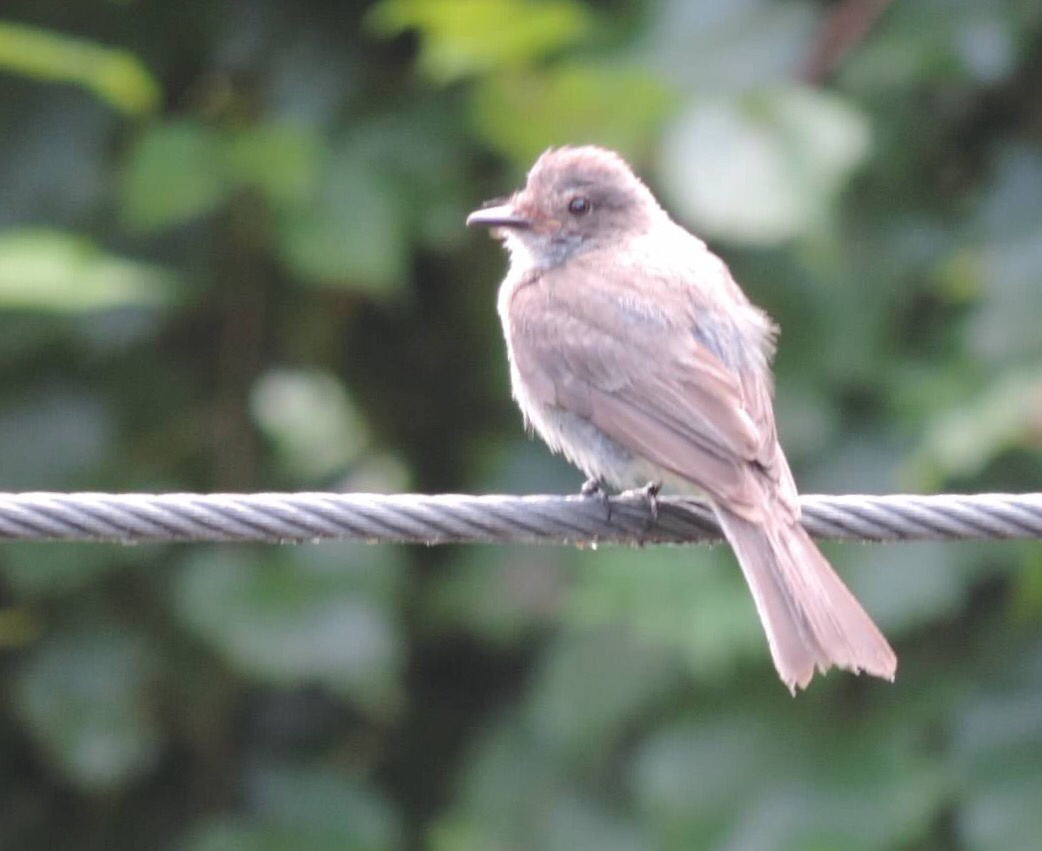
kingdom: Animalia
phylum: Chordata
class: Aves
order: Passeriformes
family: Tyrannidae
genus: Sayornis
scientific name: Sayornis phoebe
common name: Eastern phoebe
